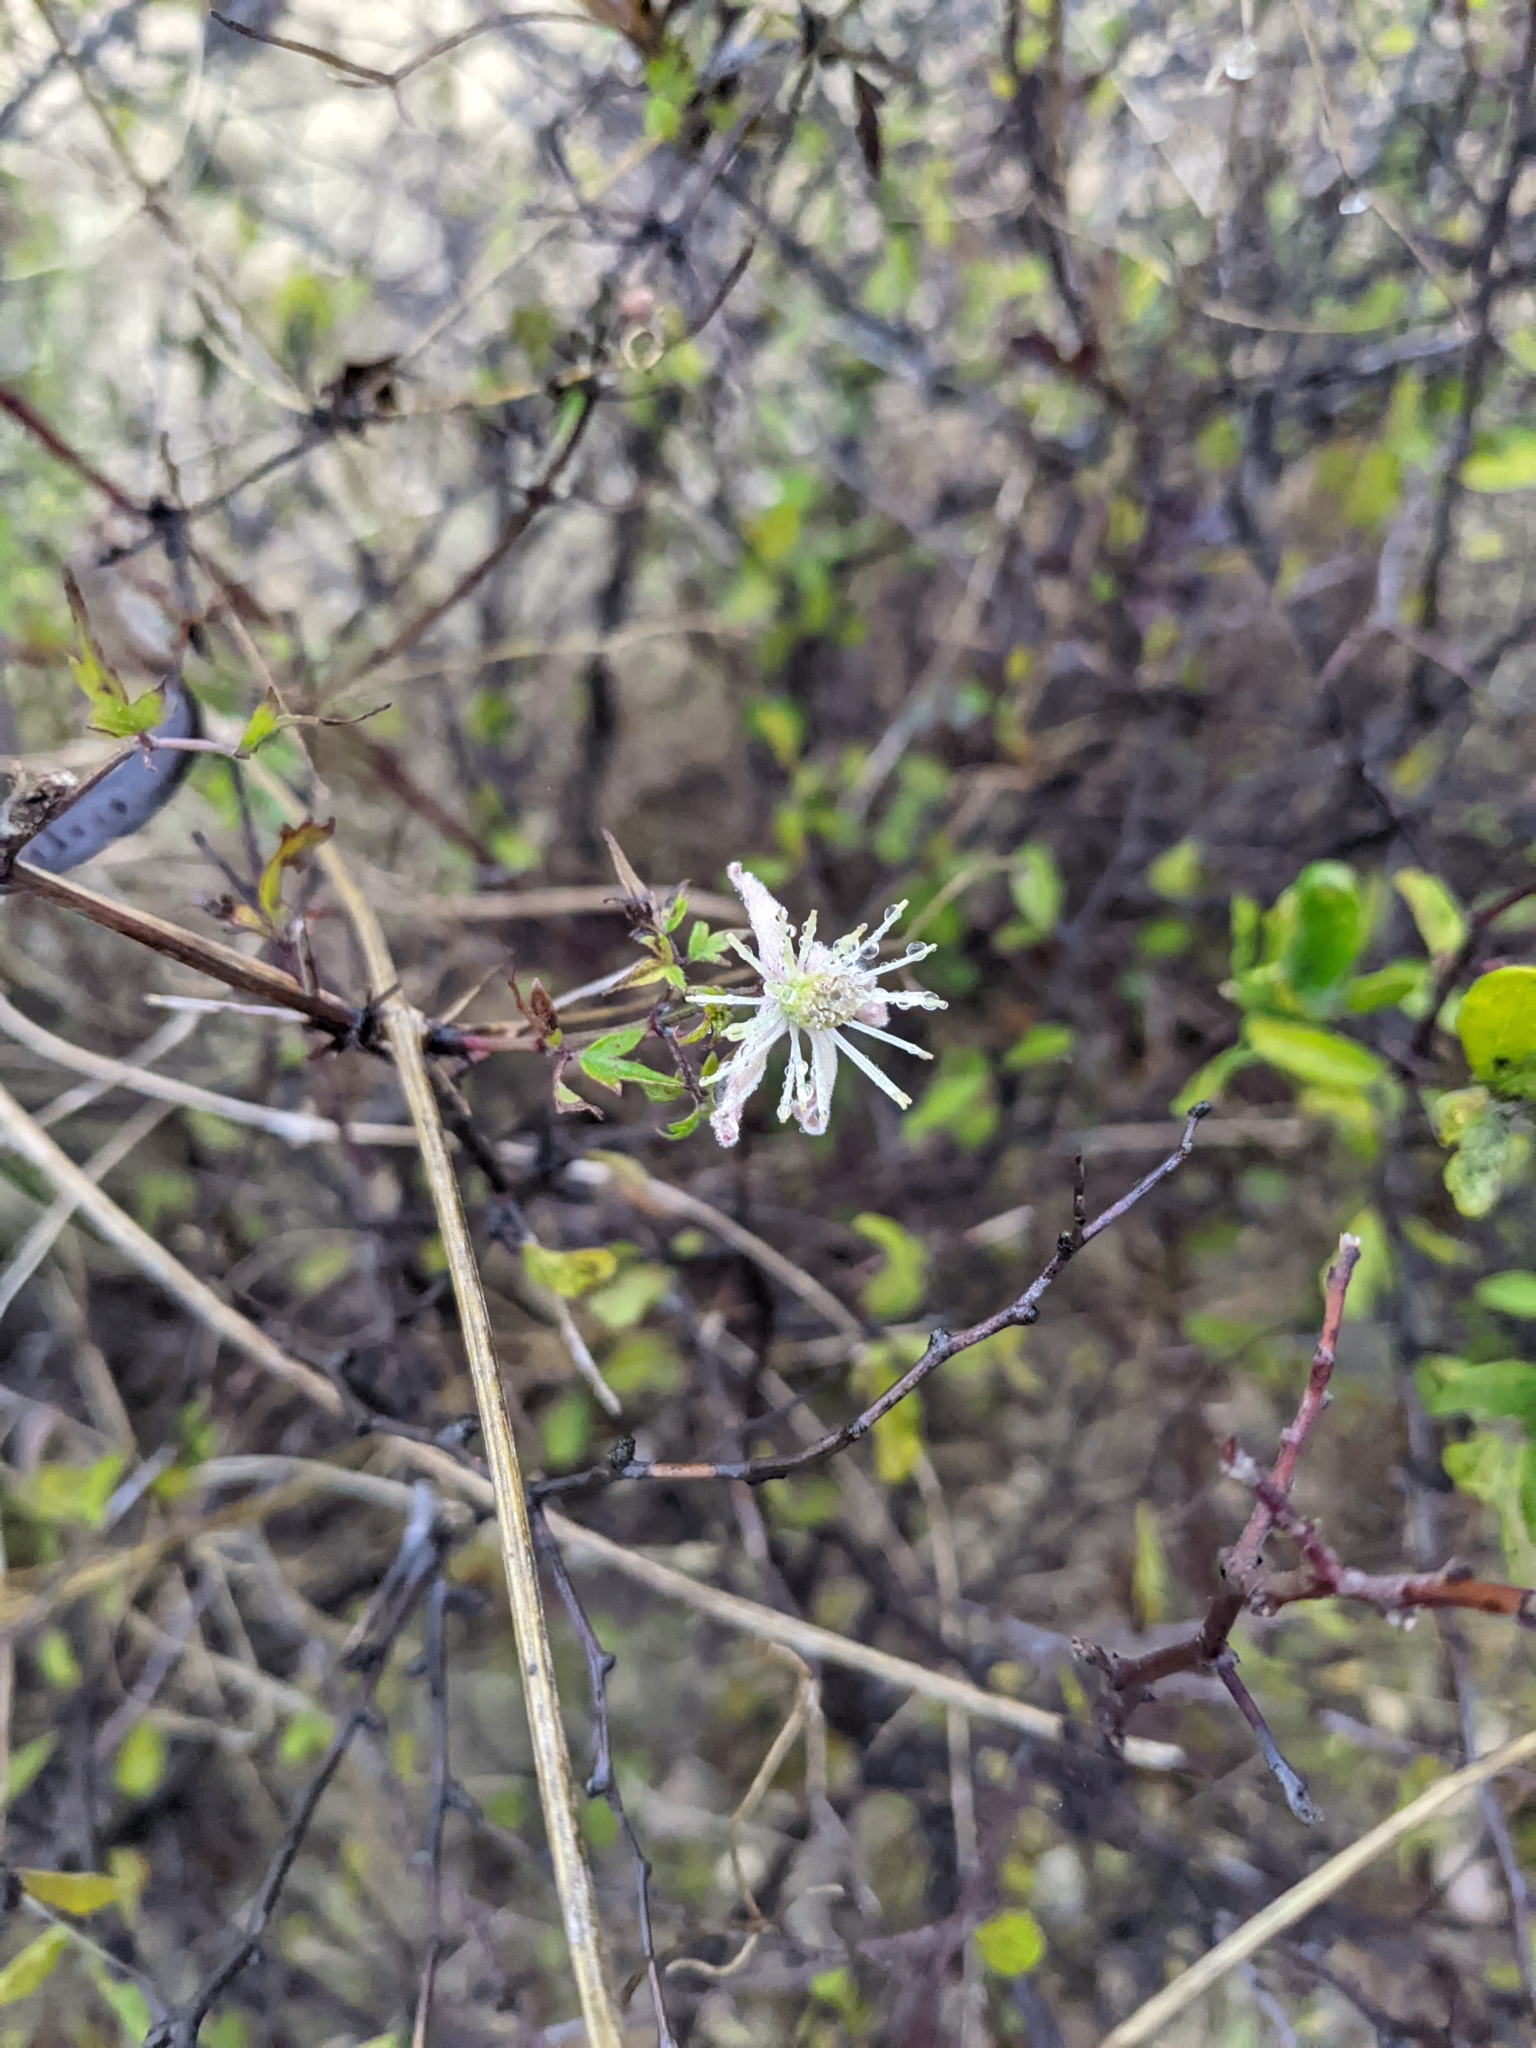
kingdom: Plantae
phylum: Tracheophyta
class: Magnoliopsida
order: Ranunculales
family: Ranunculaceae
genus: Clematis
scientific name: Clematis drummondii
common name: Texas virgin's bower
